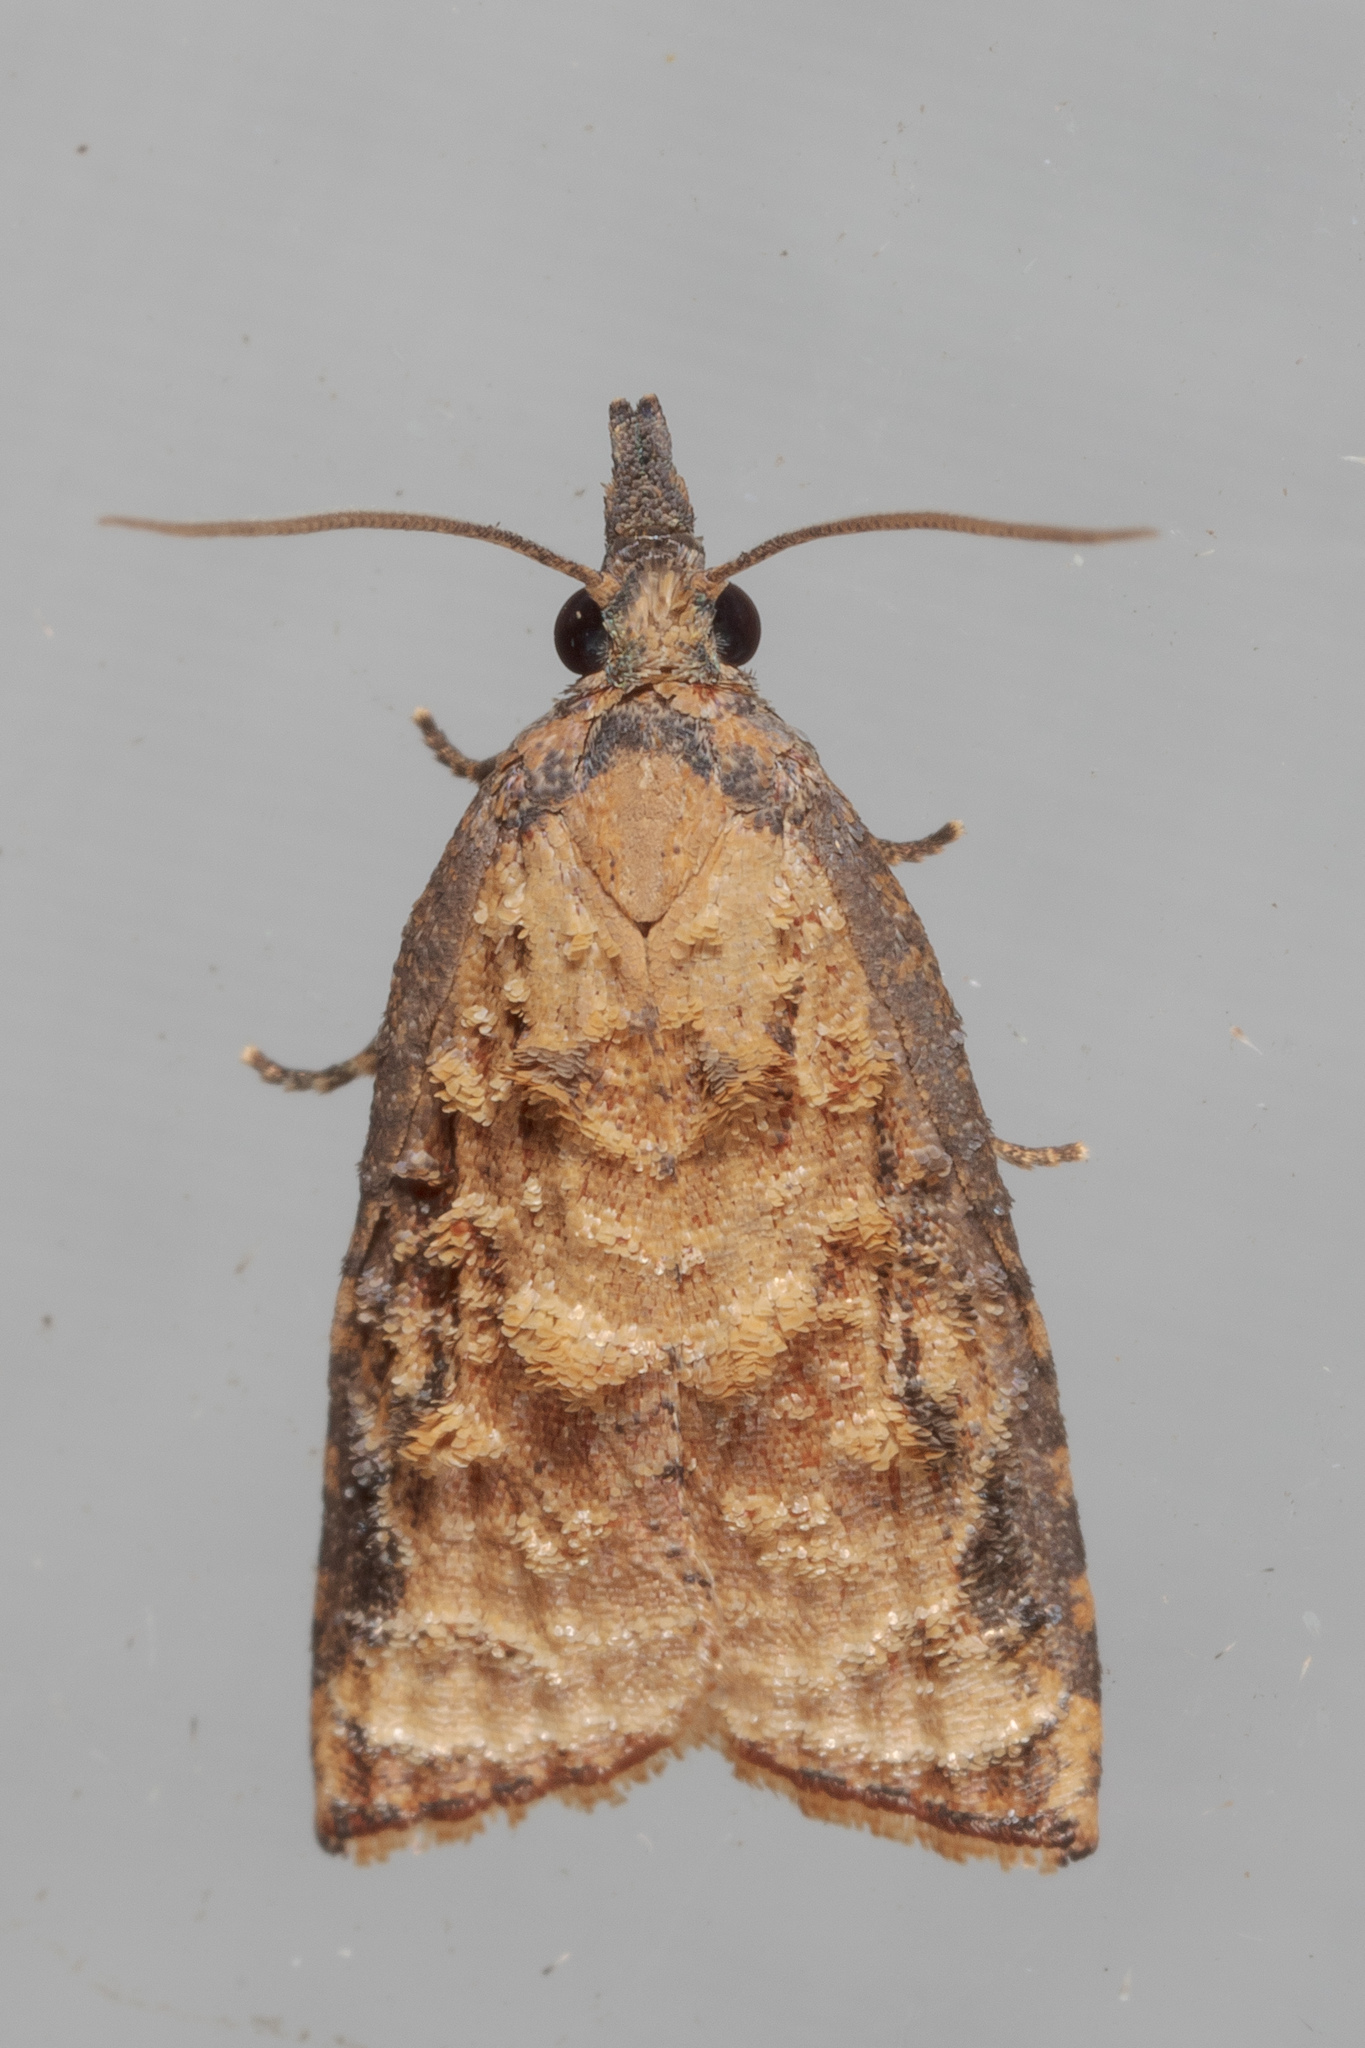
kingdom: Animalia
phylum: Arthropoda
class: Insecta
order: Lepidoptera
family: Tortricidae
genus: Platynota
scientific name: Platynota rostrana
